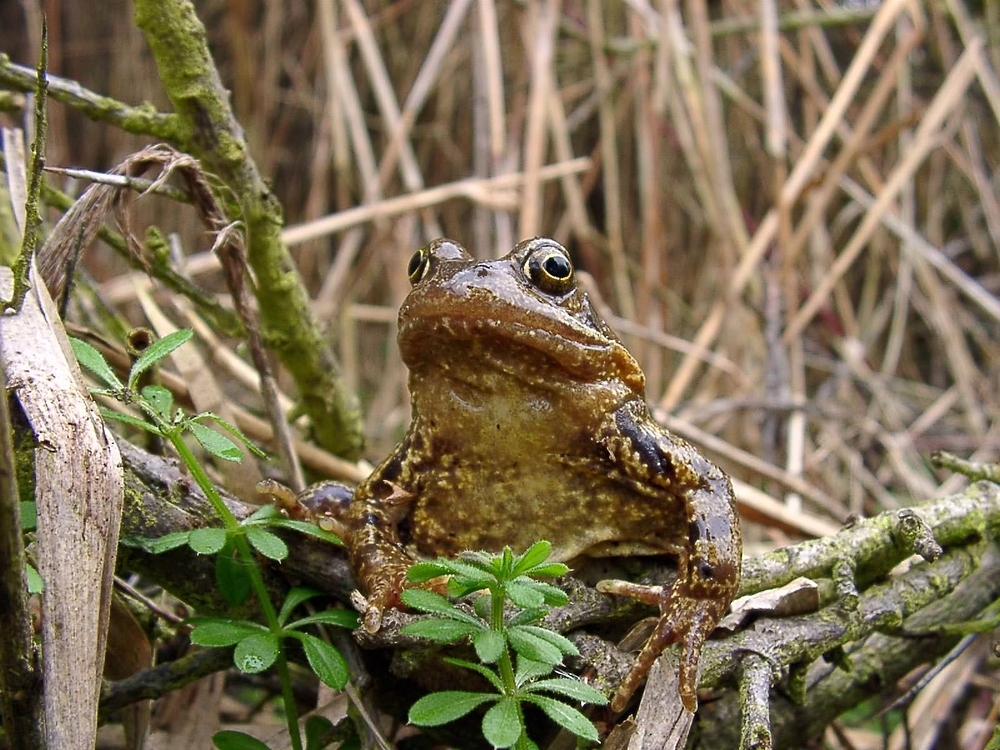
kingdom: Animalia
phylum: Chordata
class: Amphibia
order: Anura
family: Ranidae
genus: Rana
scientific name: Rana temporaria
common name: Common frog
